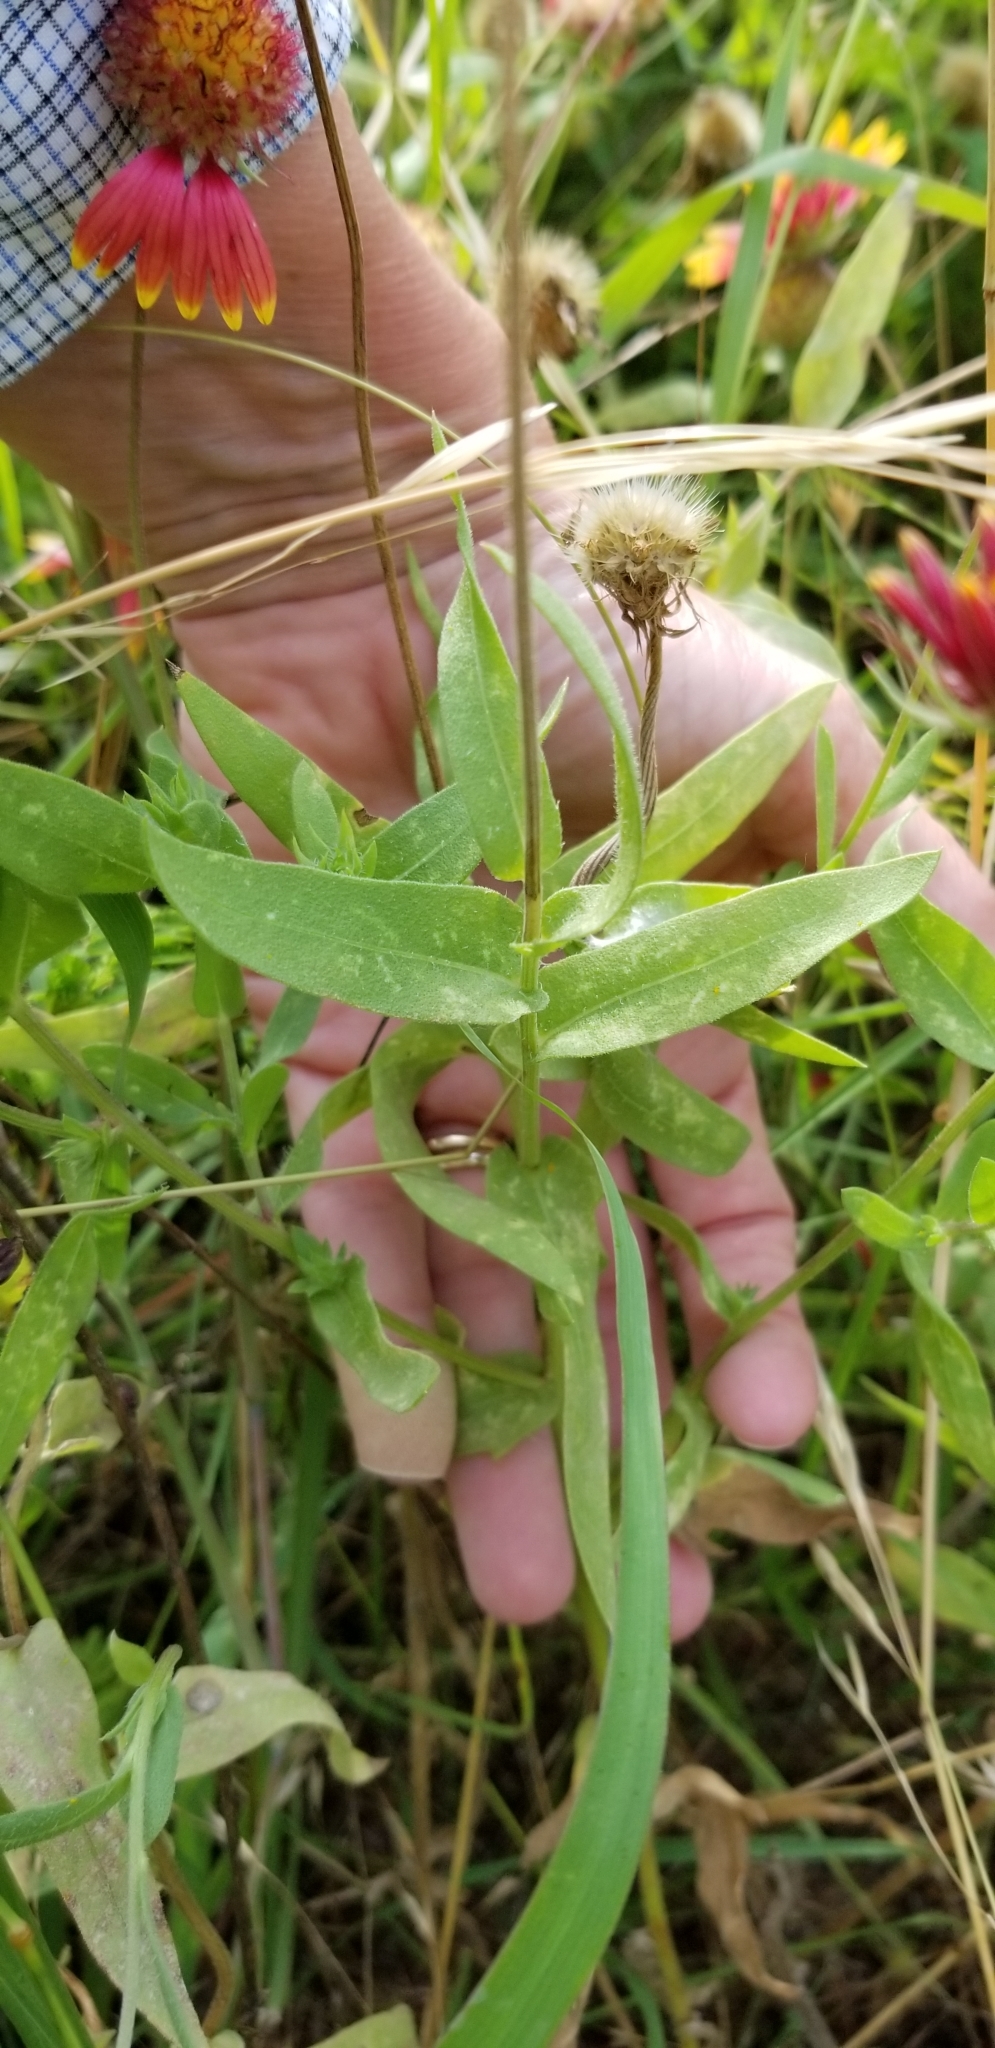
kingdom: Plantae
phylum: Tracheophyta
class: Magnoliopsida
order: Asterales
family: Asteraceae
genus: Gaillardia
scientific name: Gaillardia pulchella
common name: Firewheel
